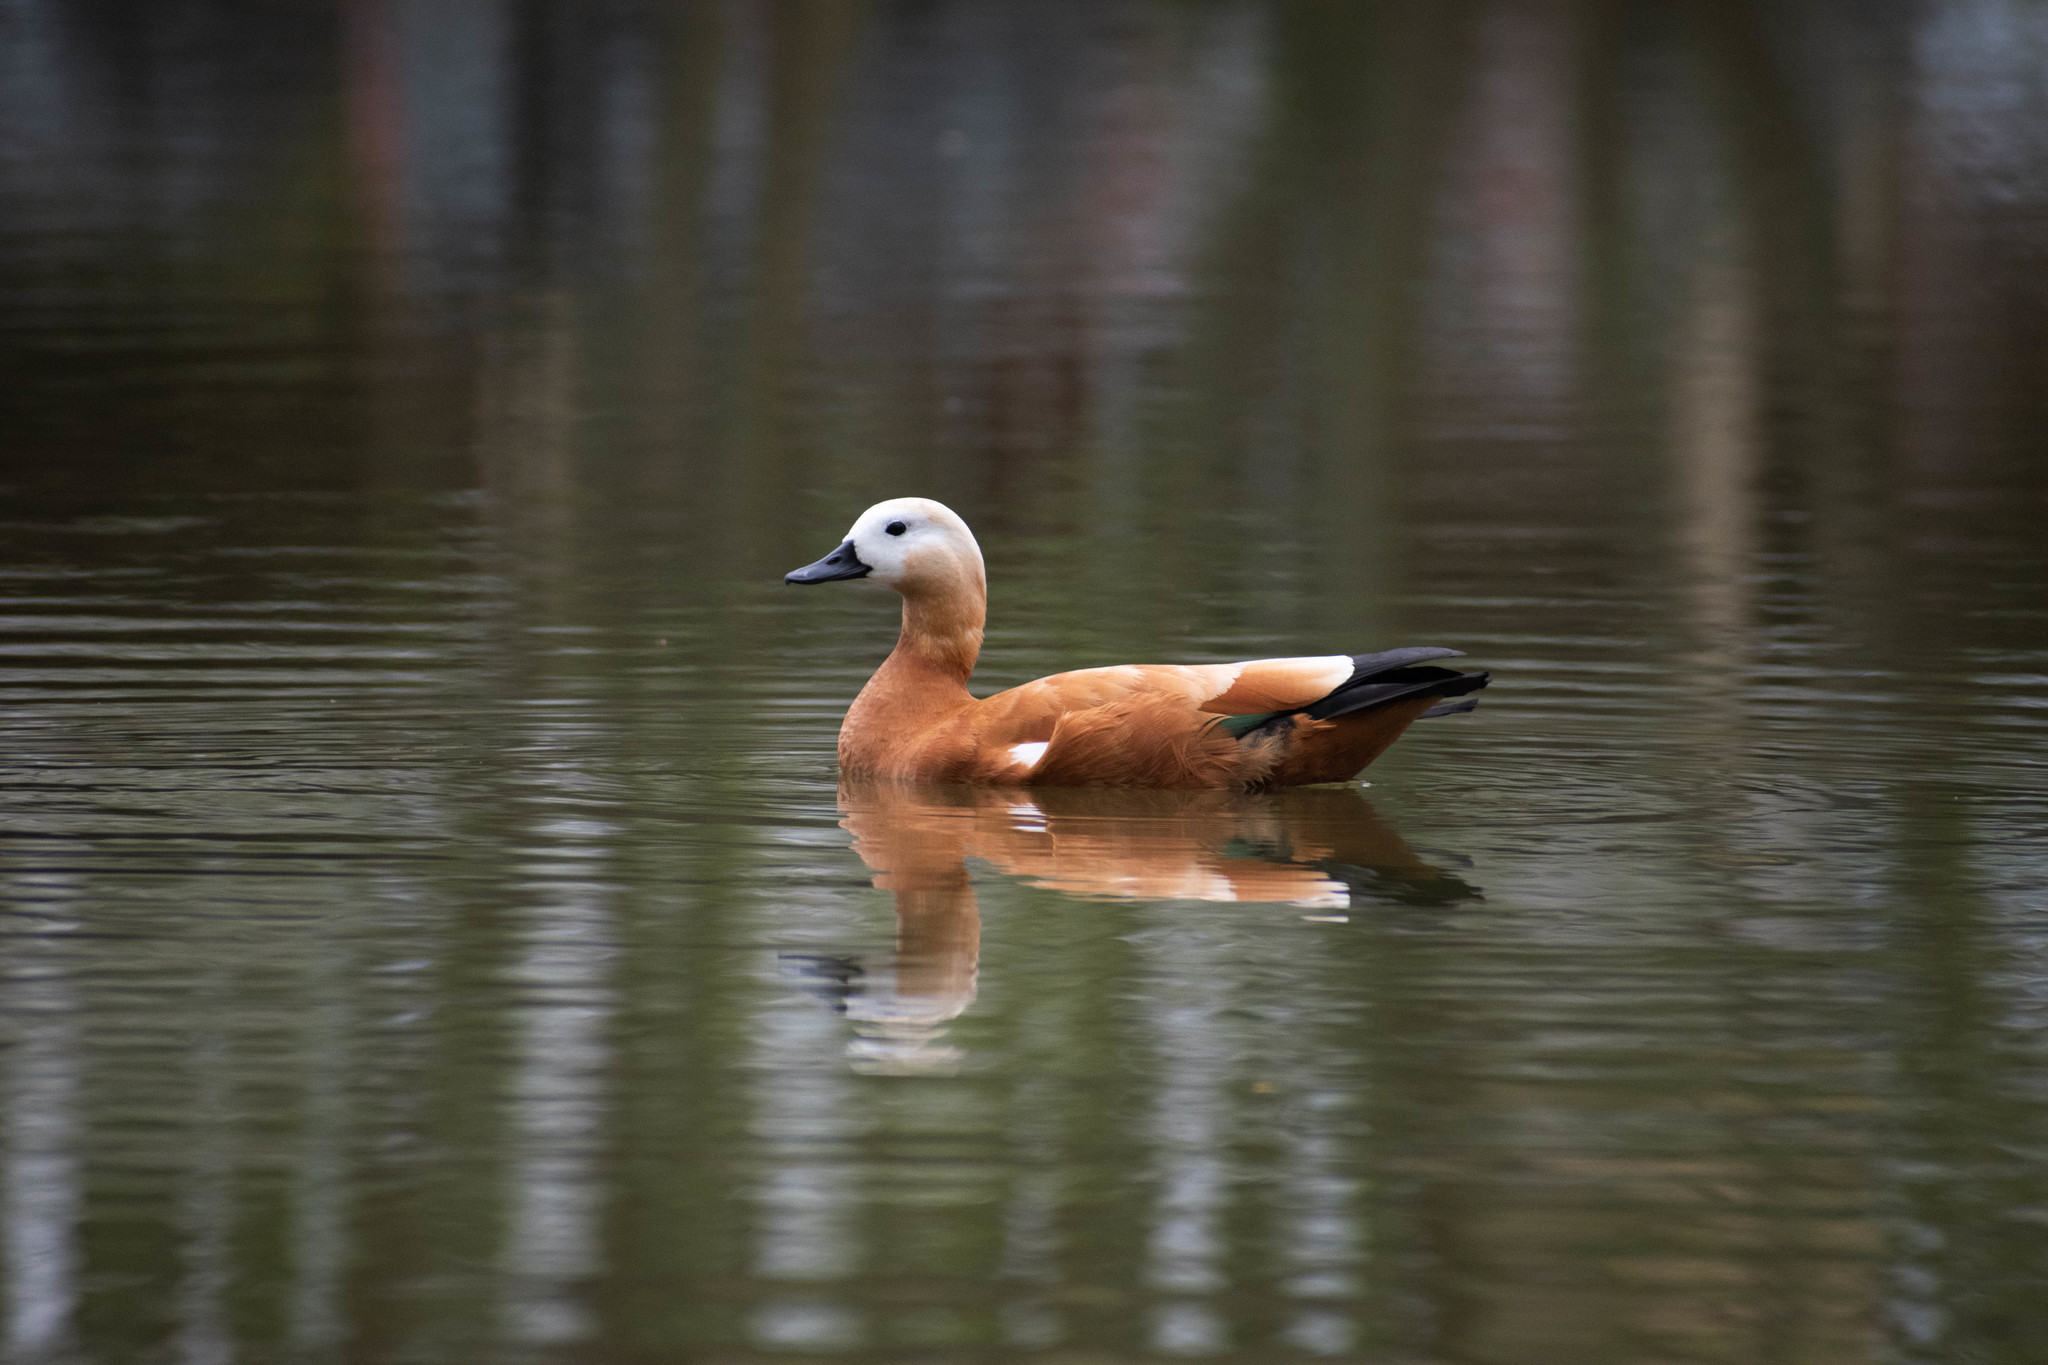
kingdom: Animalia
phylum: Chordata
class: Aves
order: Anseriformes
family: Anatidae
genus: Tadorna
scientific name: Tadorna ferruginea
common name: Ruddy shelduck
